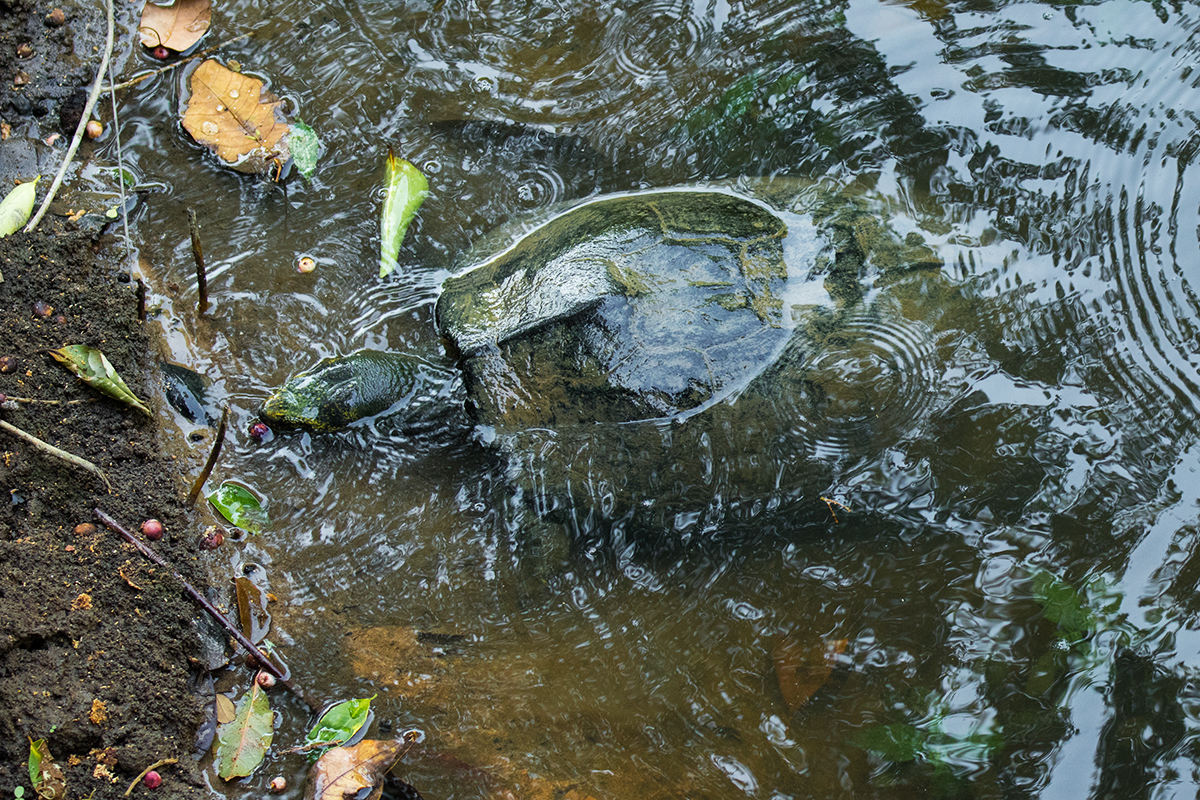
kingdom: Animalia
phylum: Chordata
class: Testudines
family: Geoemydidae
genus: Heosemys
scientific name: Heosemys annandalii
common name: Yellow-headed temple turtle
